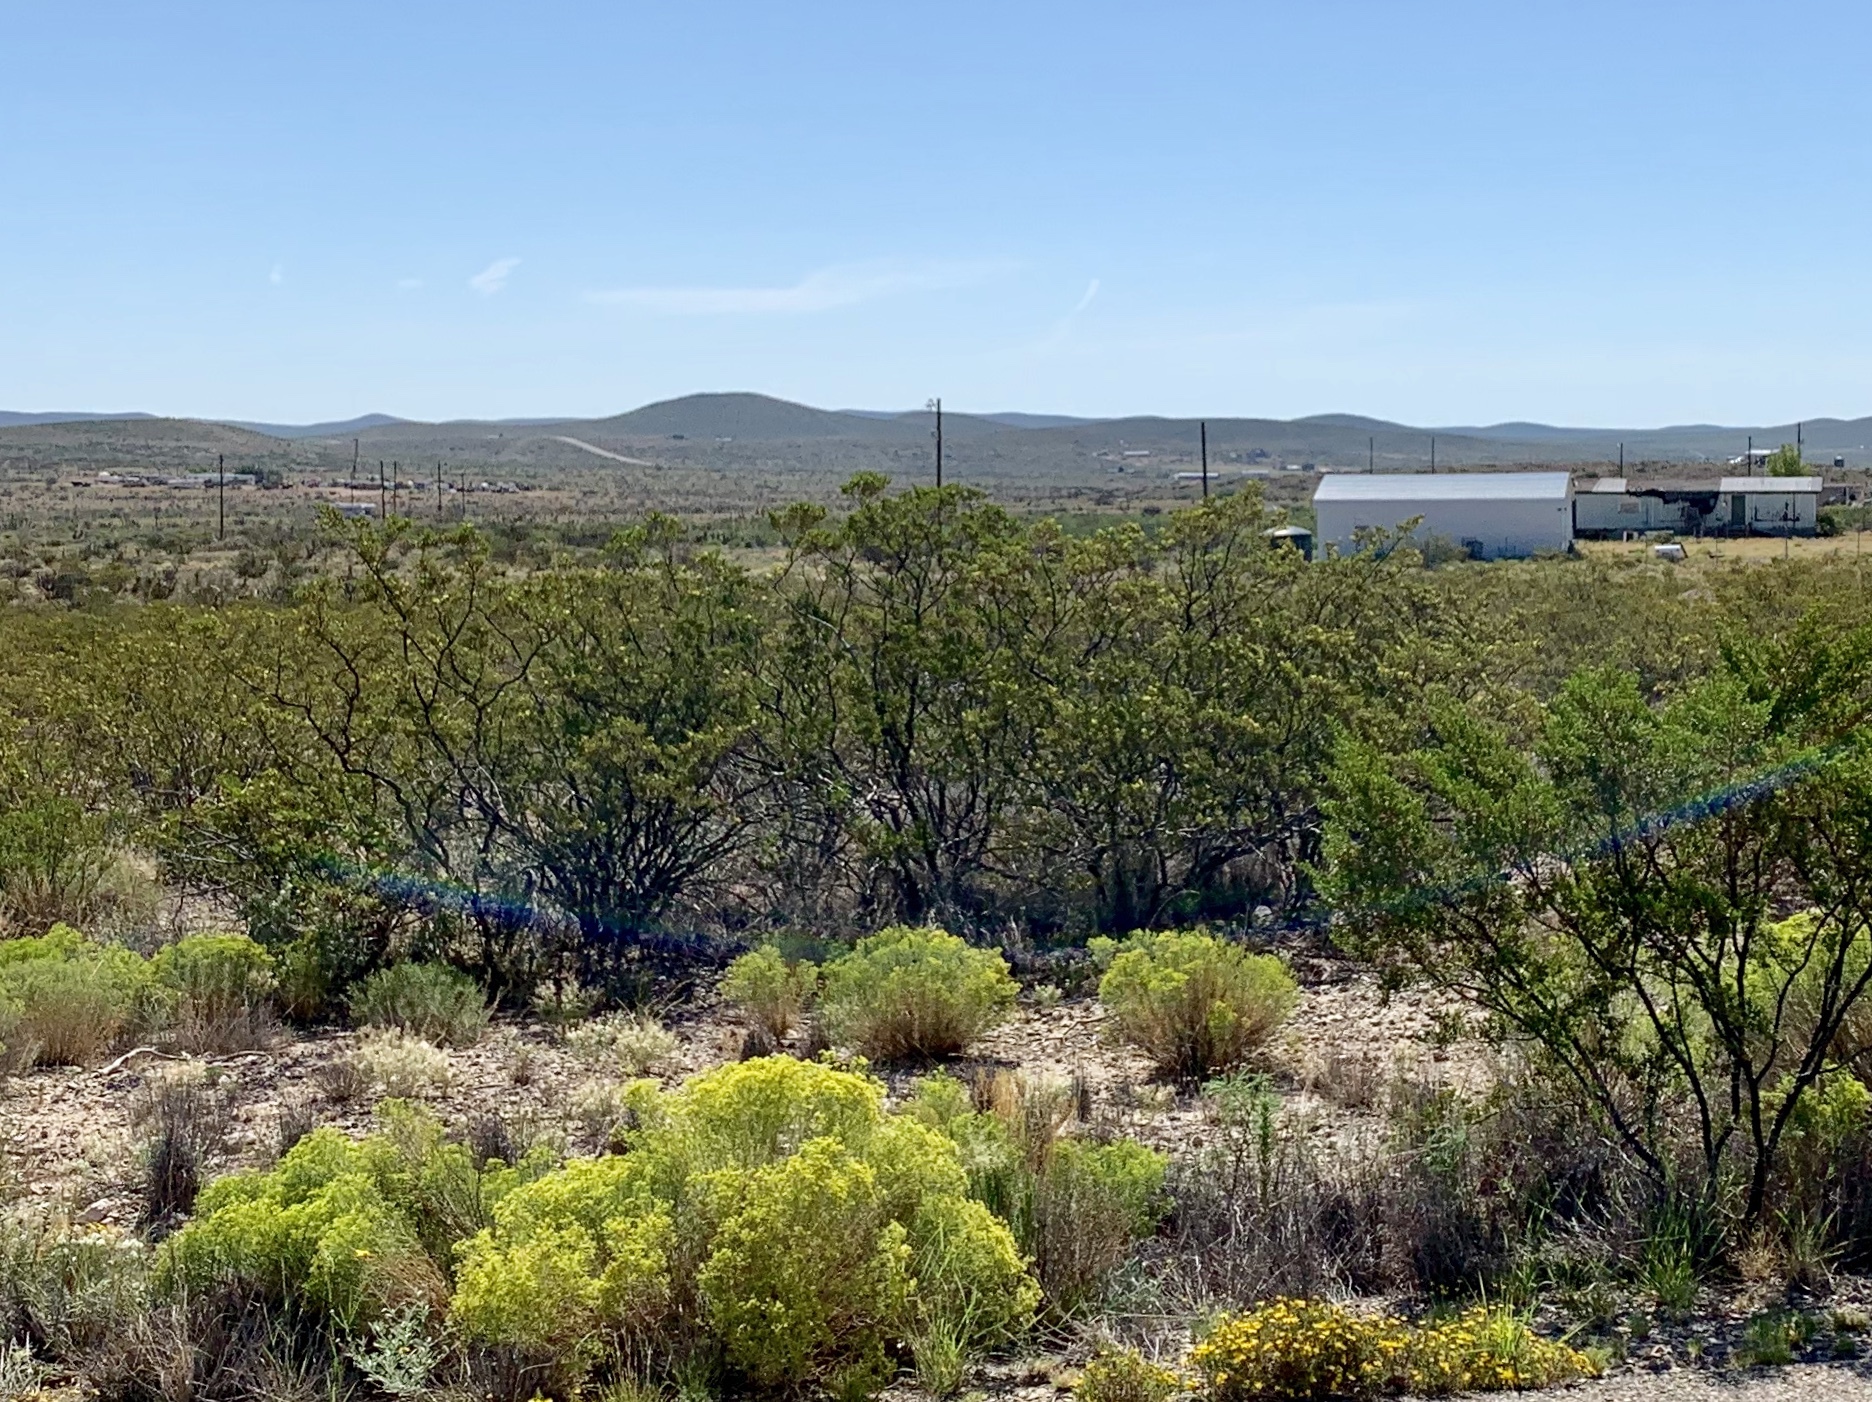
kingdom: Plantae
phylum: Tracheophyta
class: Magnoliopsida
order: Zygophyllales
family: Zygophyllaceae
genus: Larrea
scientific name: Larrea tridentata
